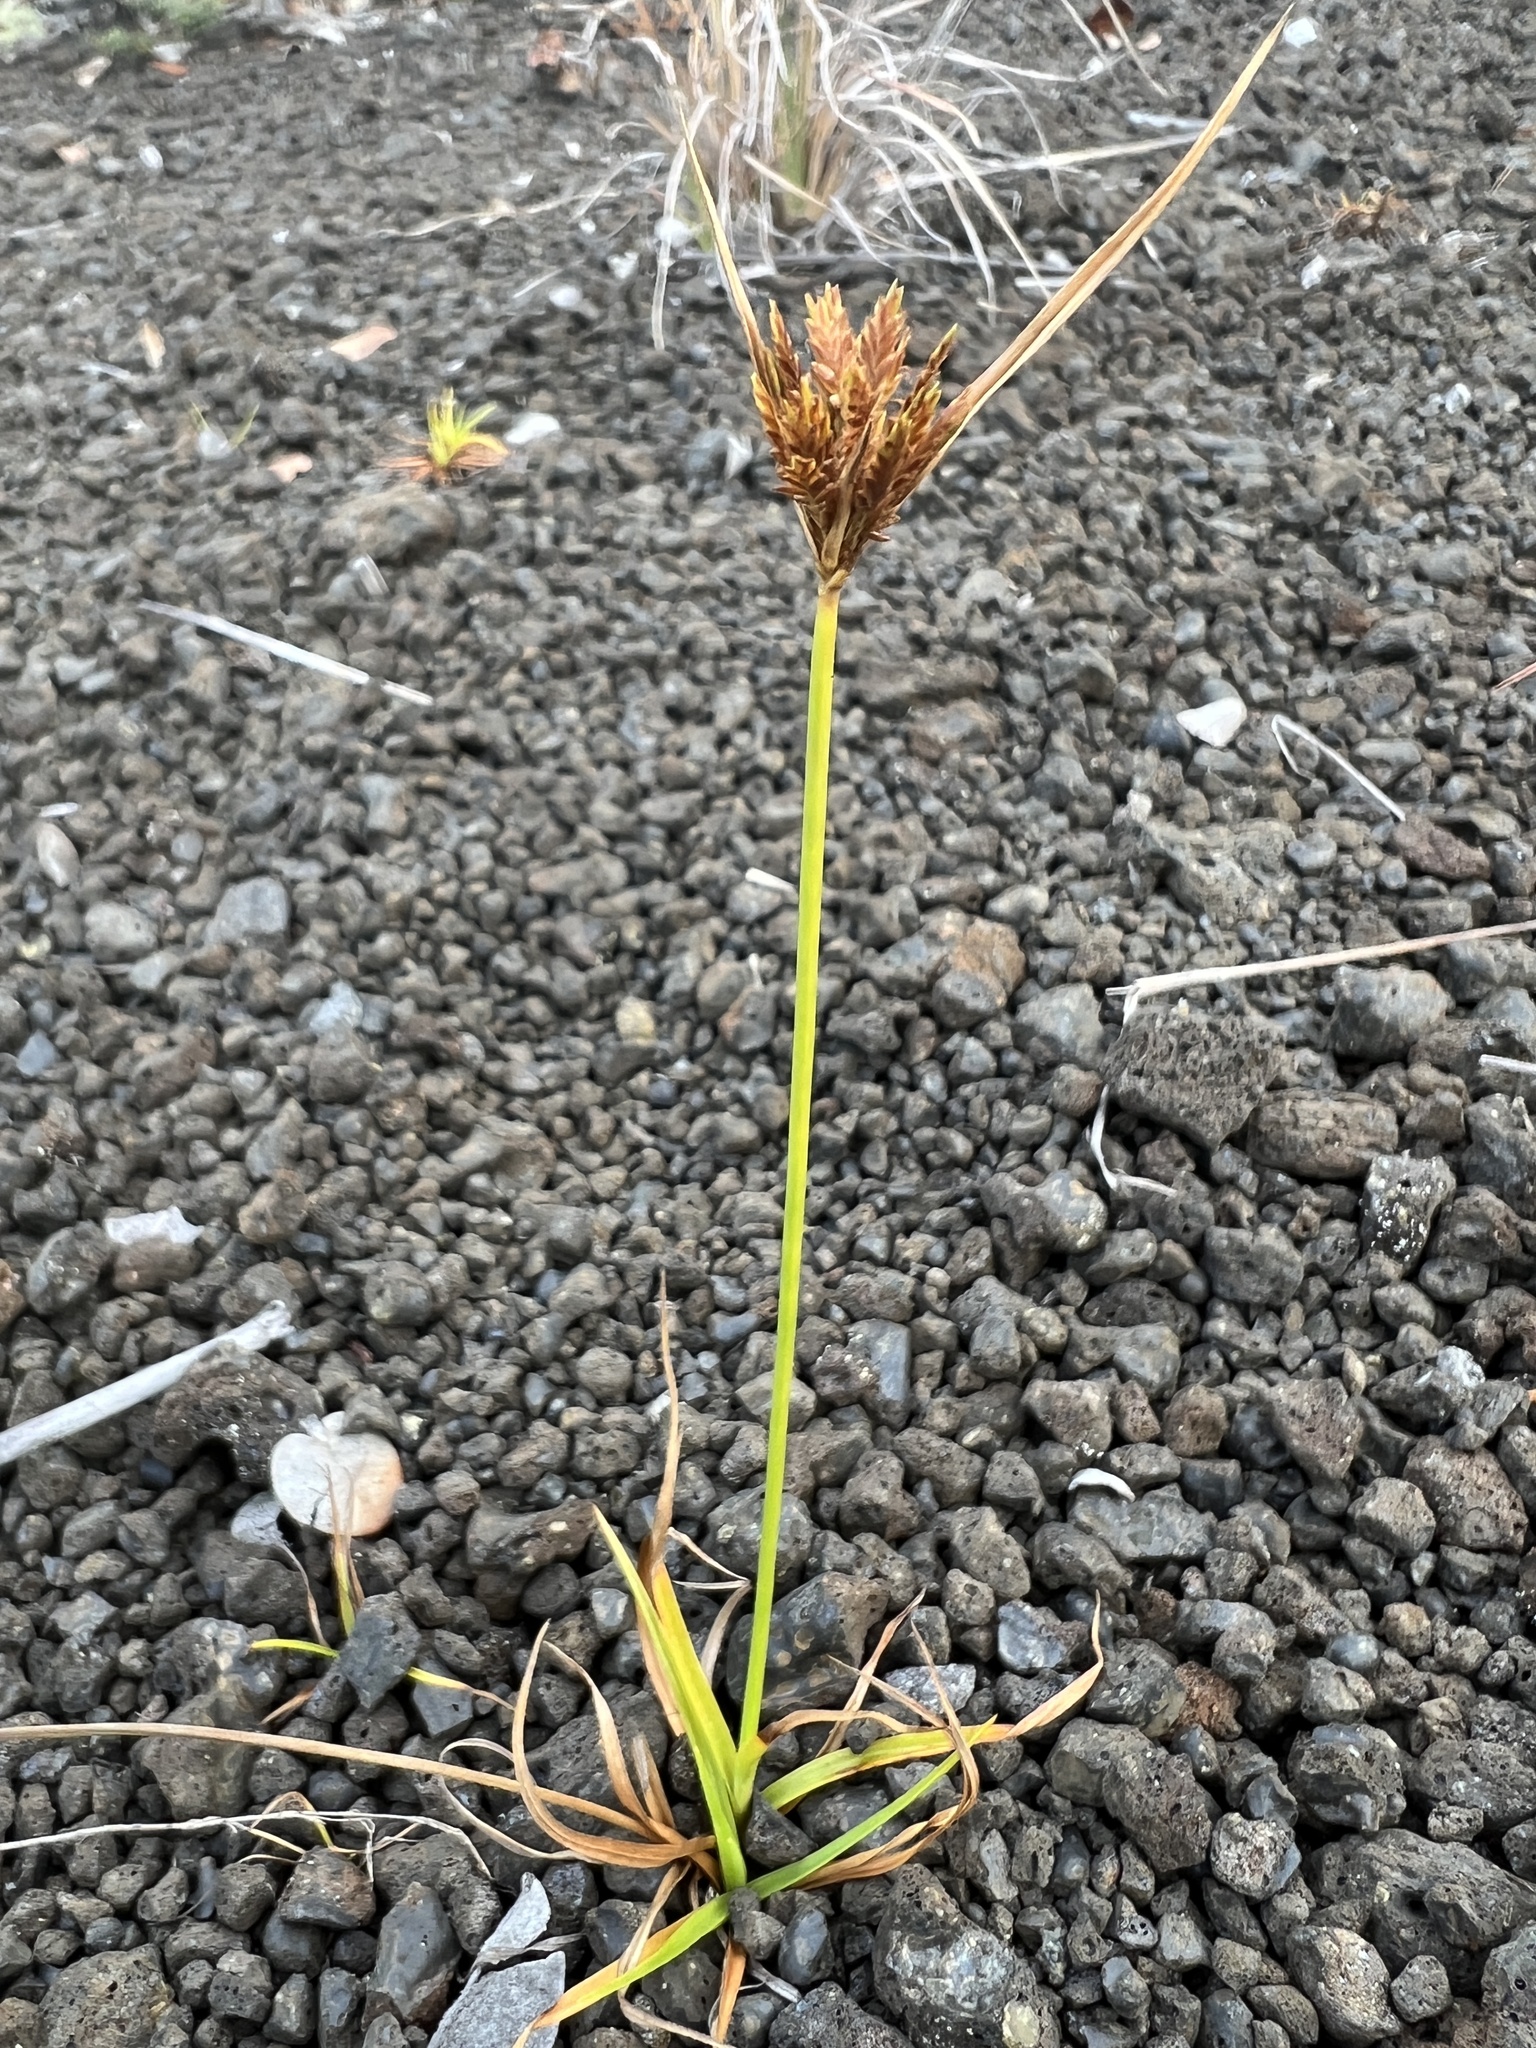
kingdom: Plantae
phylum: Tracheophyta
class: Liliopsida
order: Poales
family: Cyperaceae
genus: Cyperus
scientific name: Cyperus polystachyos
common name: Bunchy flat sedge
